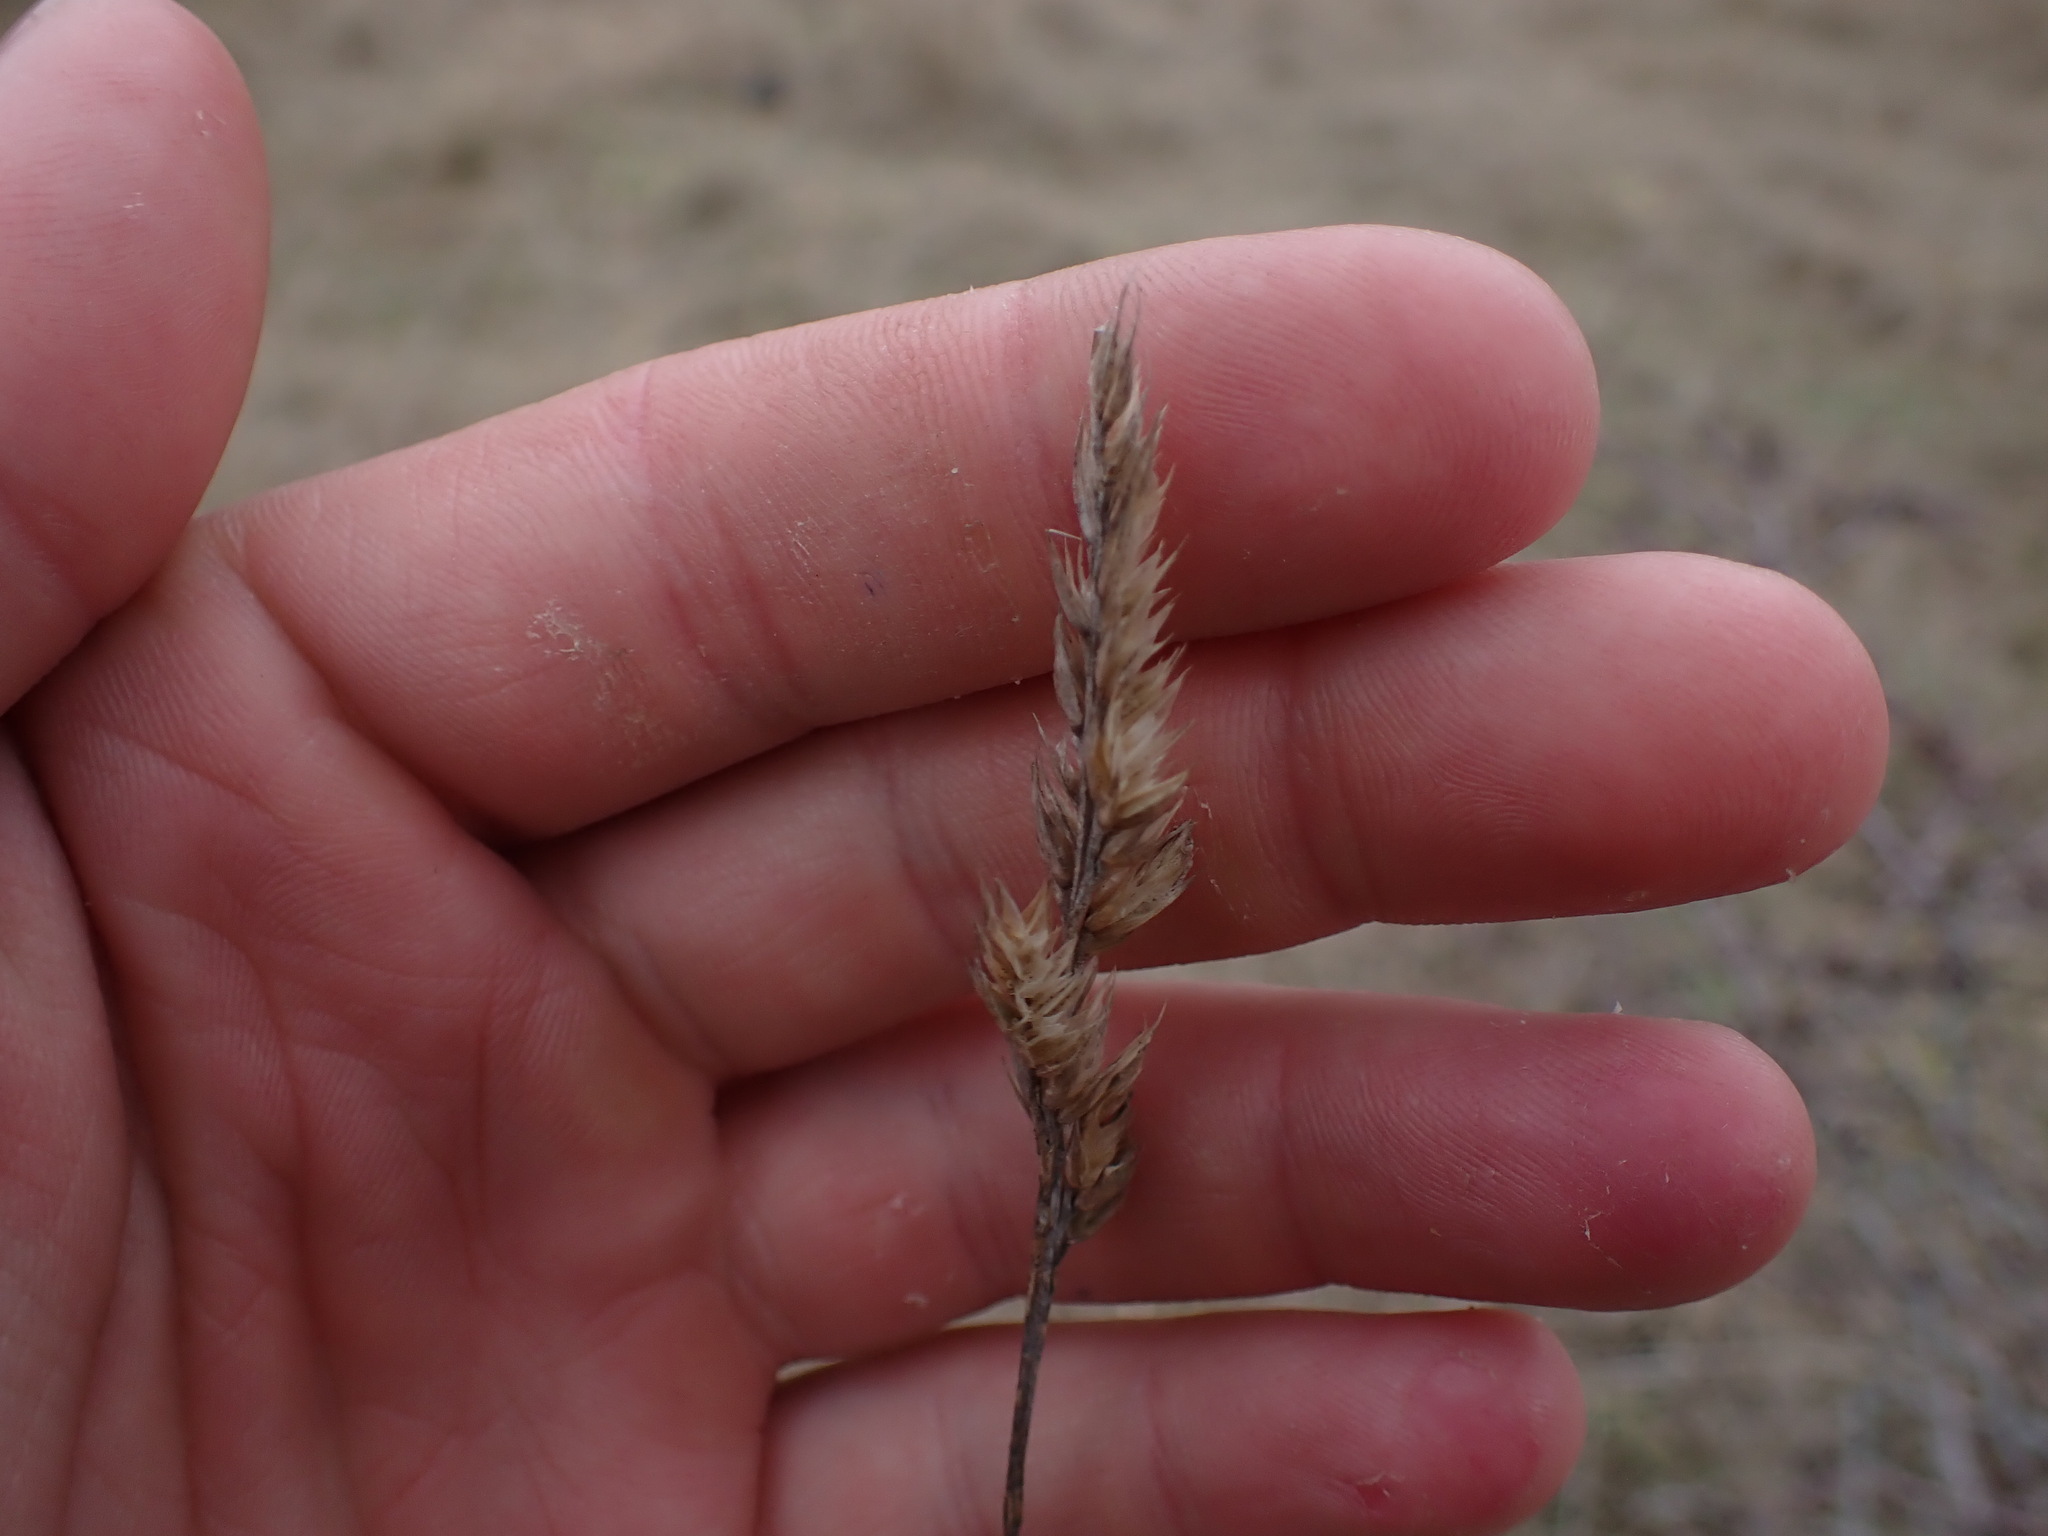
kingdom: Plantae
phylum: Tracheophyta
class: Liliopsida
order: Poales
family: Poaceae
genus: Dactylis
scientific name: Dactylis glomerata
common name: Orchardgrass
